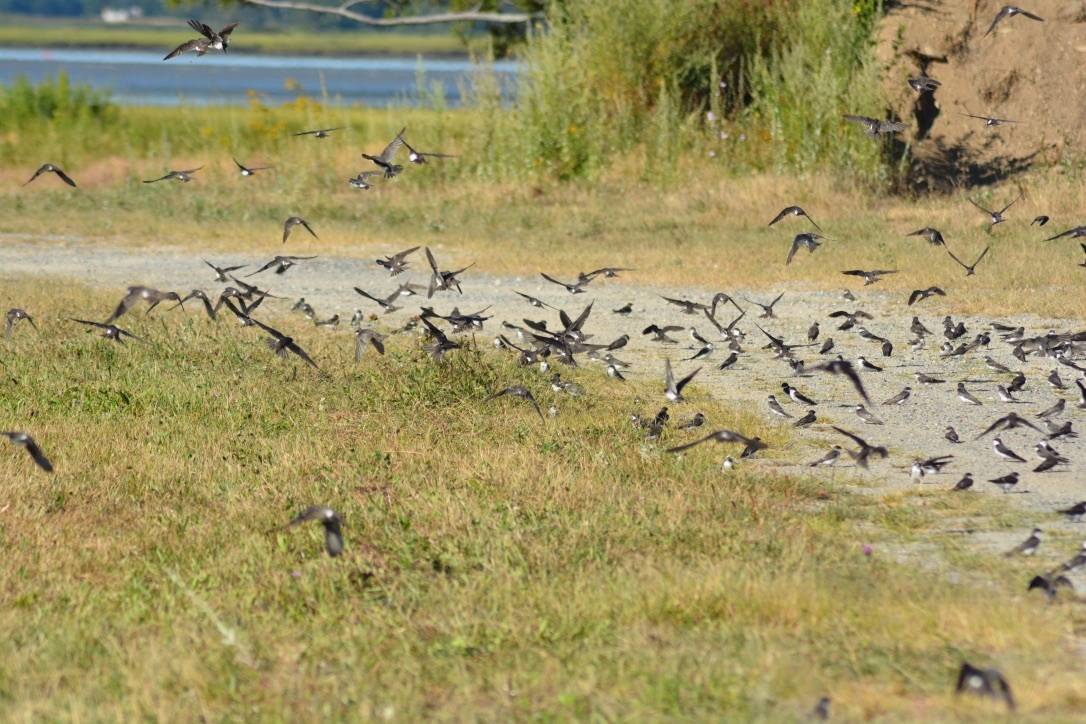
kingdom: Animalia
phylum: Chordata
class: Aves
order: Passeriformes
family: Hirundinidae
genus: Tachycineta
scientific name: Tachycineta bicolor
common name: Tree swallow
